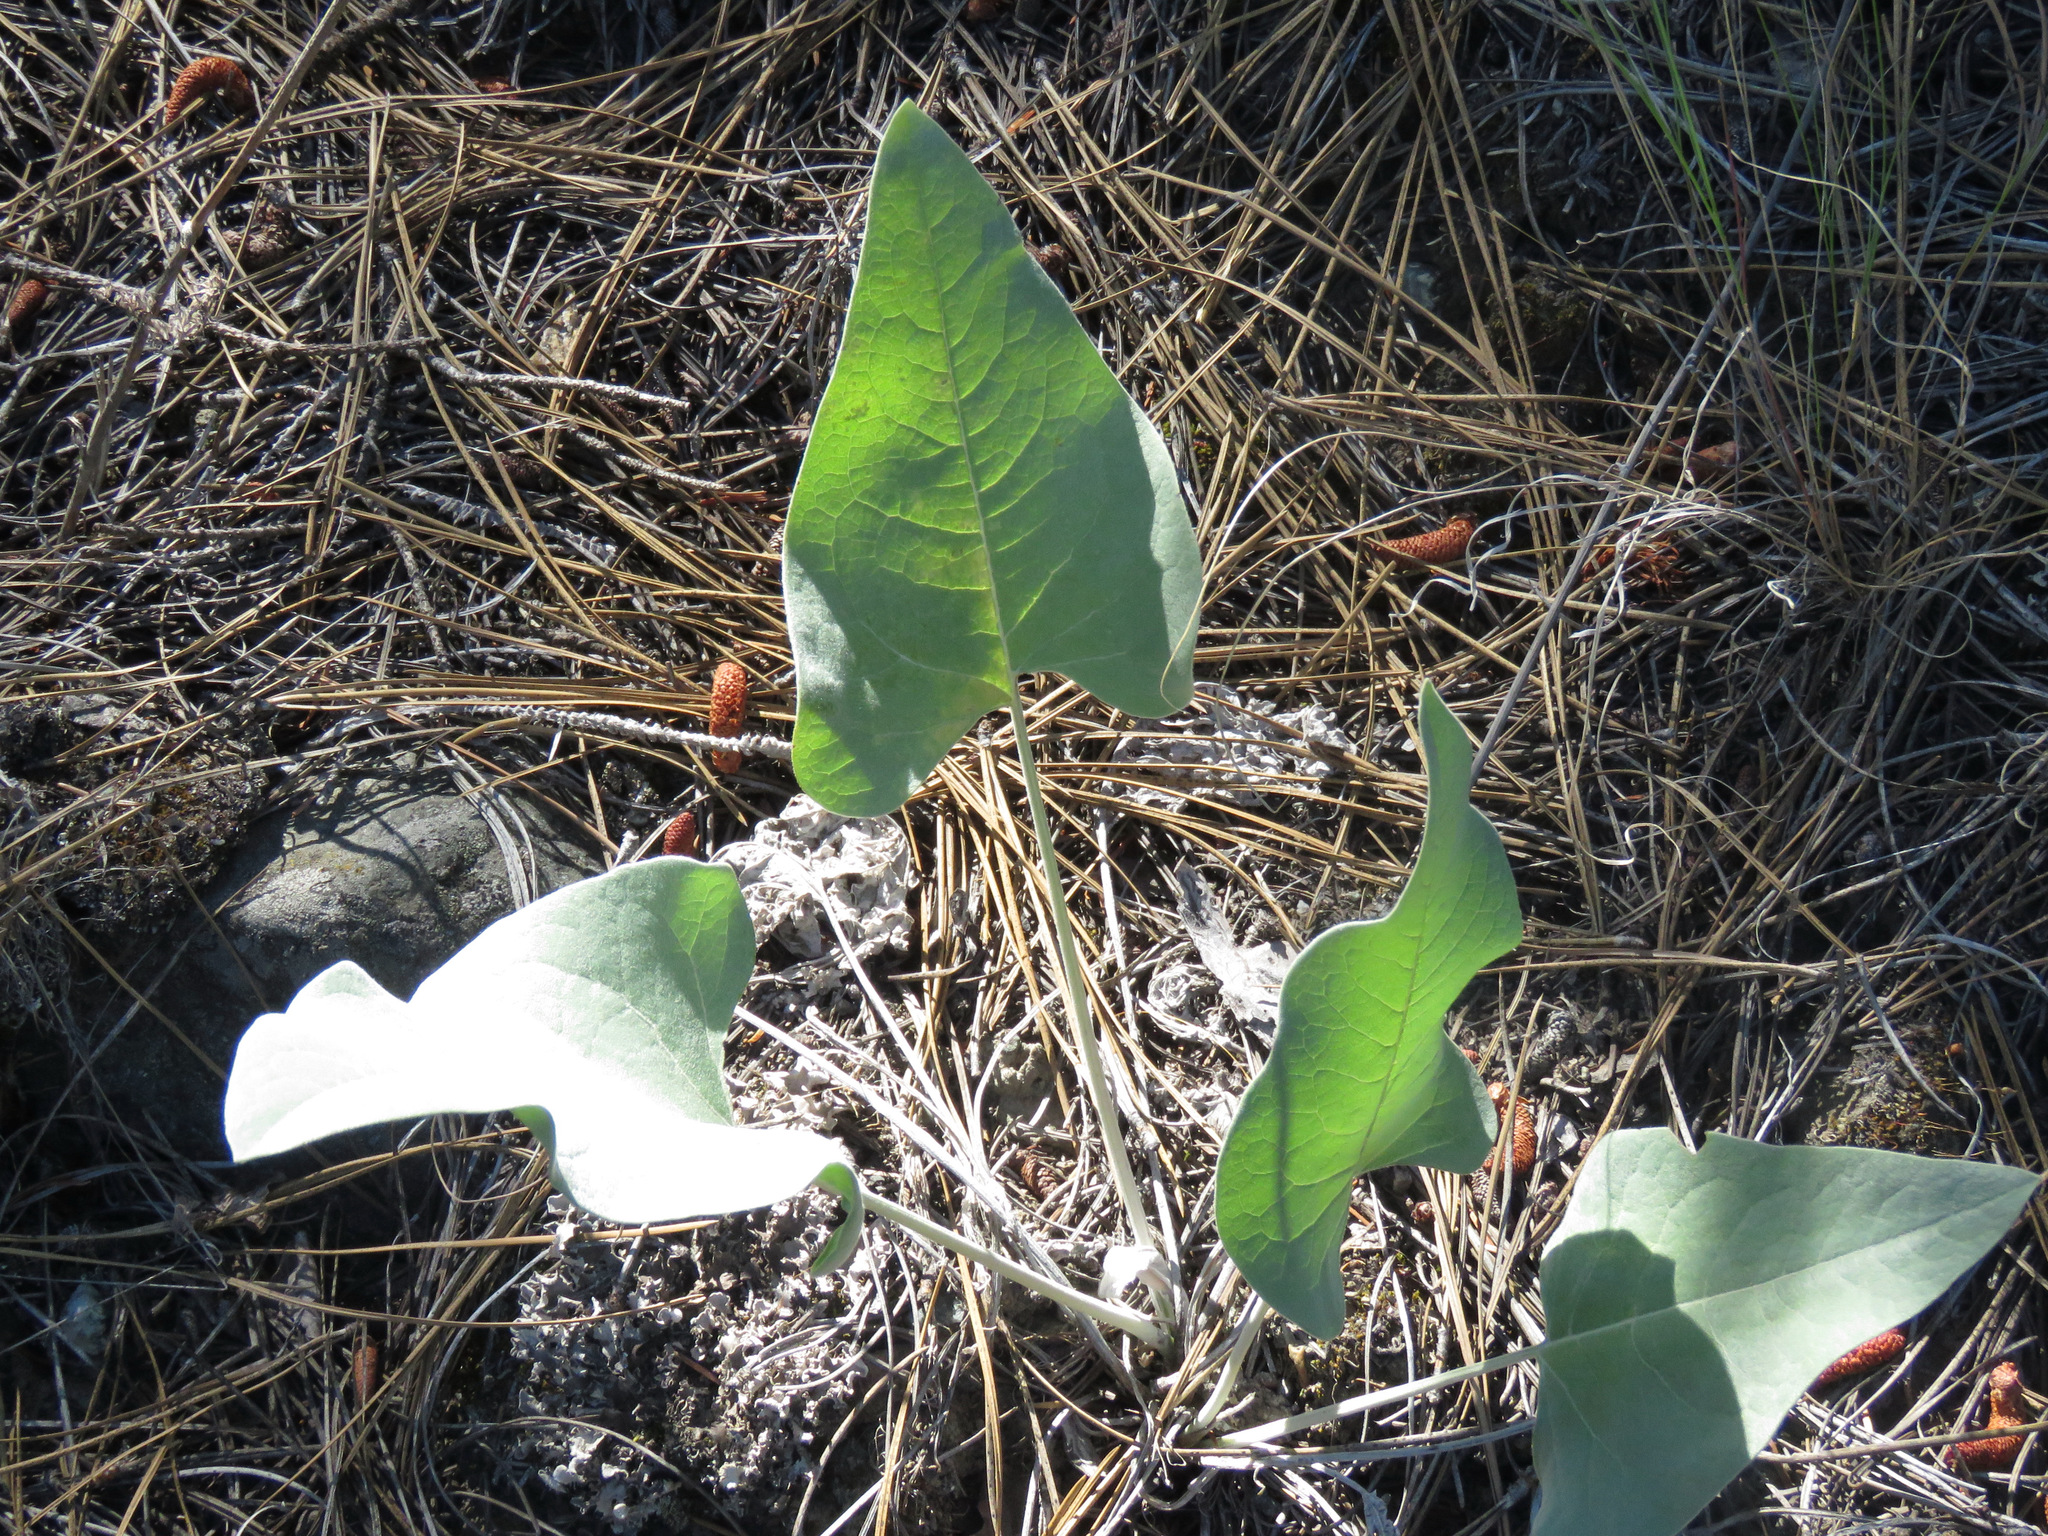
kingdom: Plantae
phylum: Tracheophyta
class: Magnoliopsida
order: Asterales
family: Asteraceae
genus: Wyethia
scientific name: Wyethia sagittata
